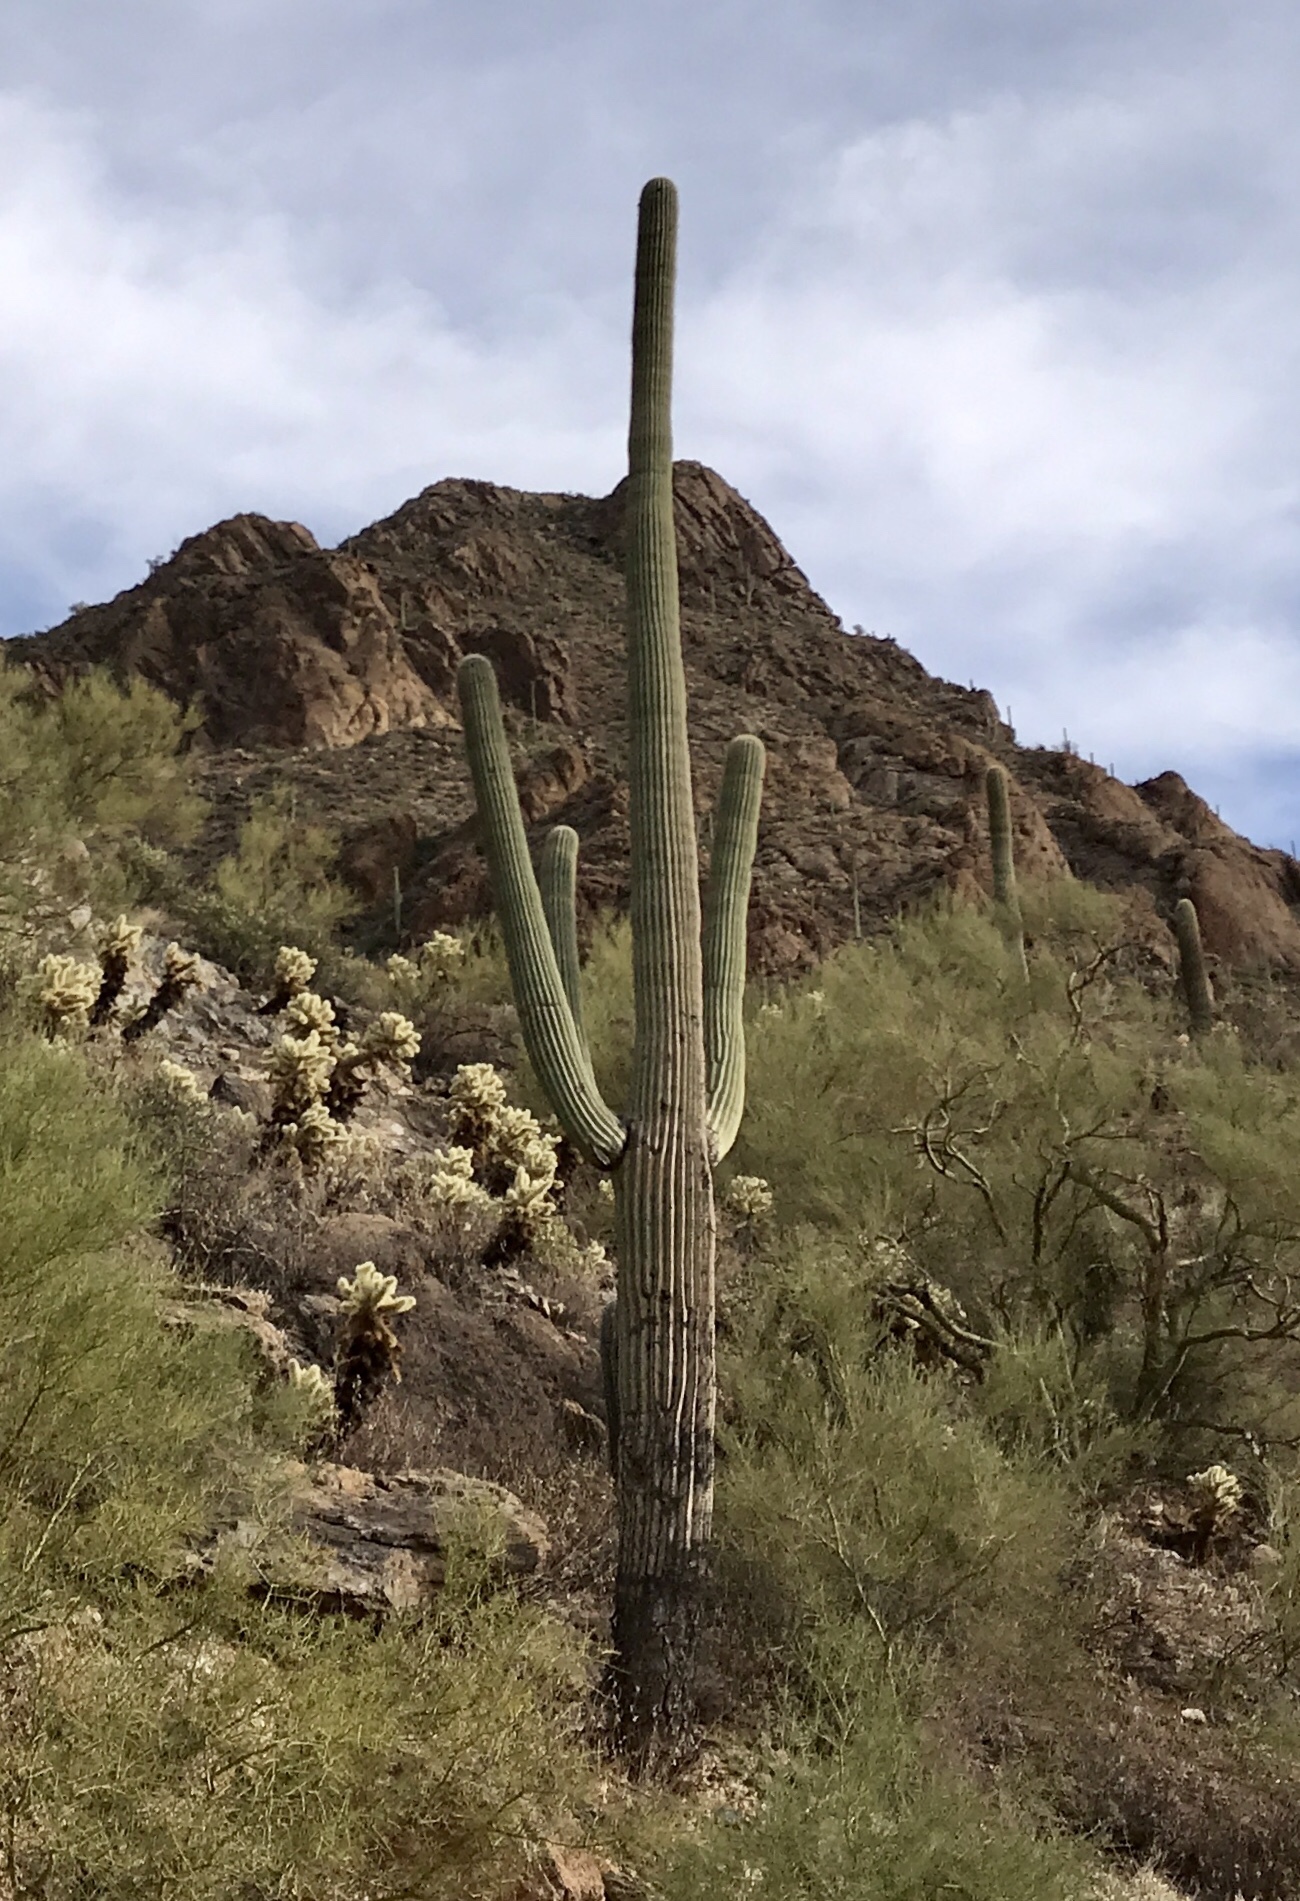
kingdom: Plantae
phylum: Tracheophyta
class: Magnoliopsida
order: Caryophyllales
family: Cactaceae
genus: Carnegiea
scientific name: Carnegiea gigantea
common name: Saguaro
